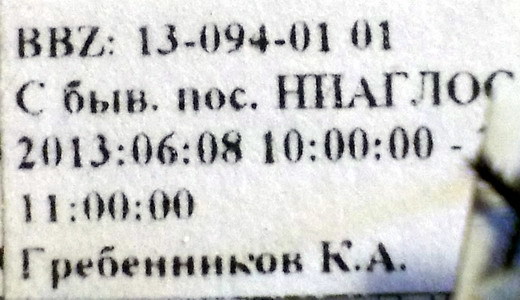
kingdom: Animalia
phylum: Arthropoda
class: Insecta
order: Hemiptera
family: Cydnidae
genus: Cydnus
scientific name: Cydnus aterrimus
